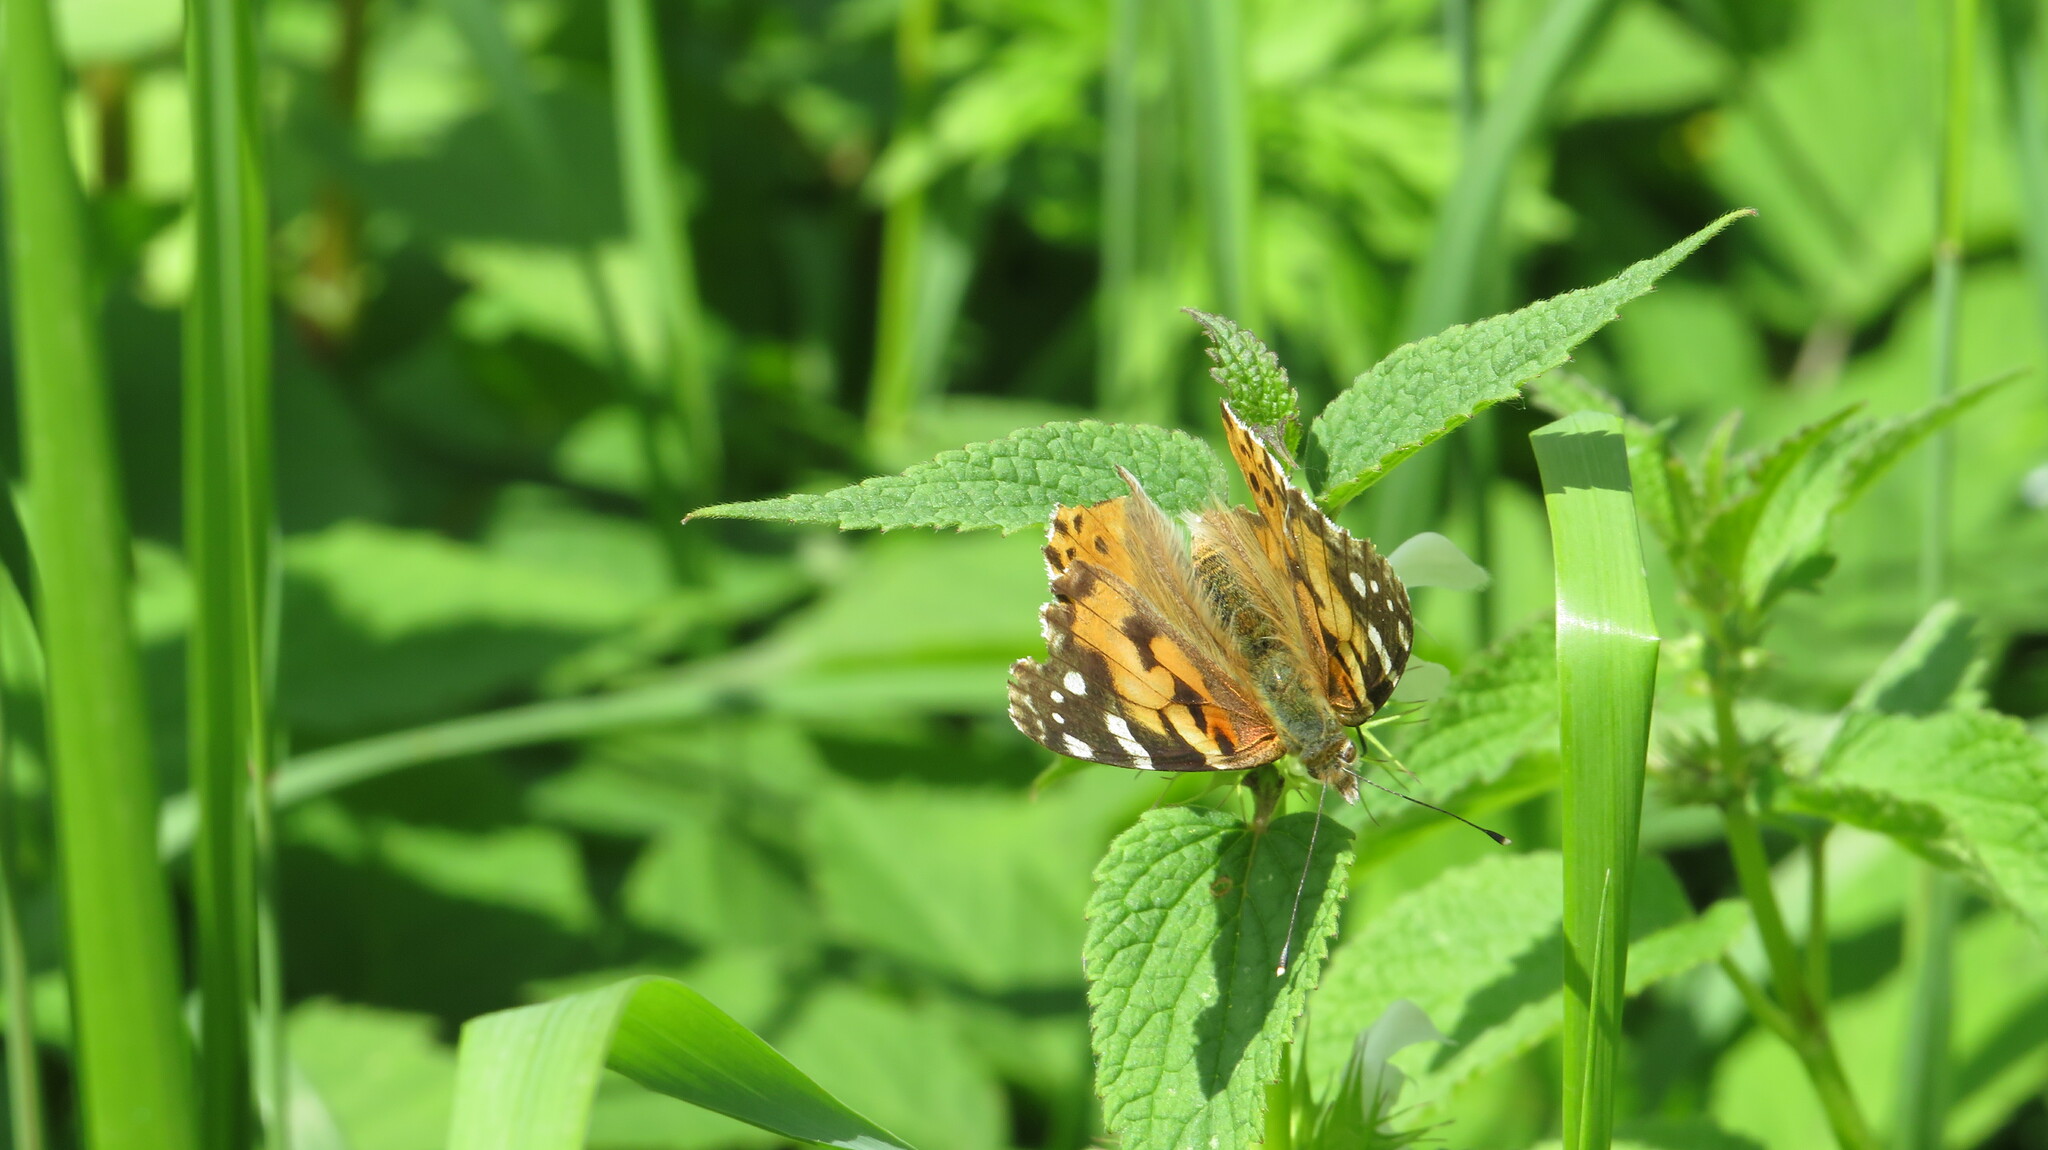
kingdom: Animalia
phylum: Arthropoda
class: Insecta
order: Lepidoptera
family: Nymphalidae
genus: Vanessa
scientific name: Vanessa cardui
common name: Painted lady
